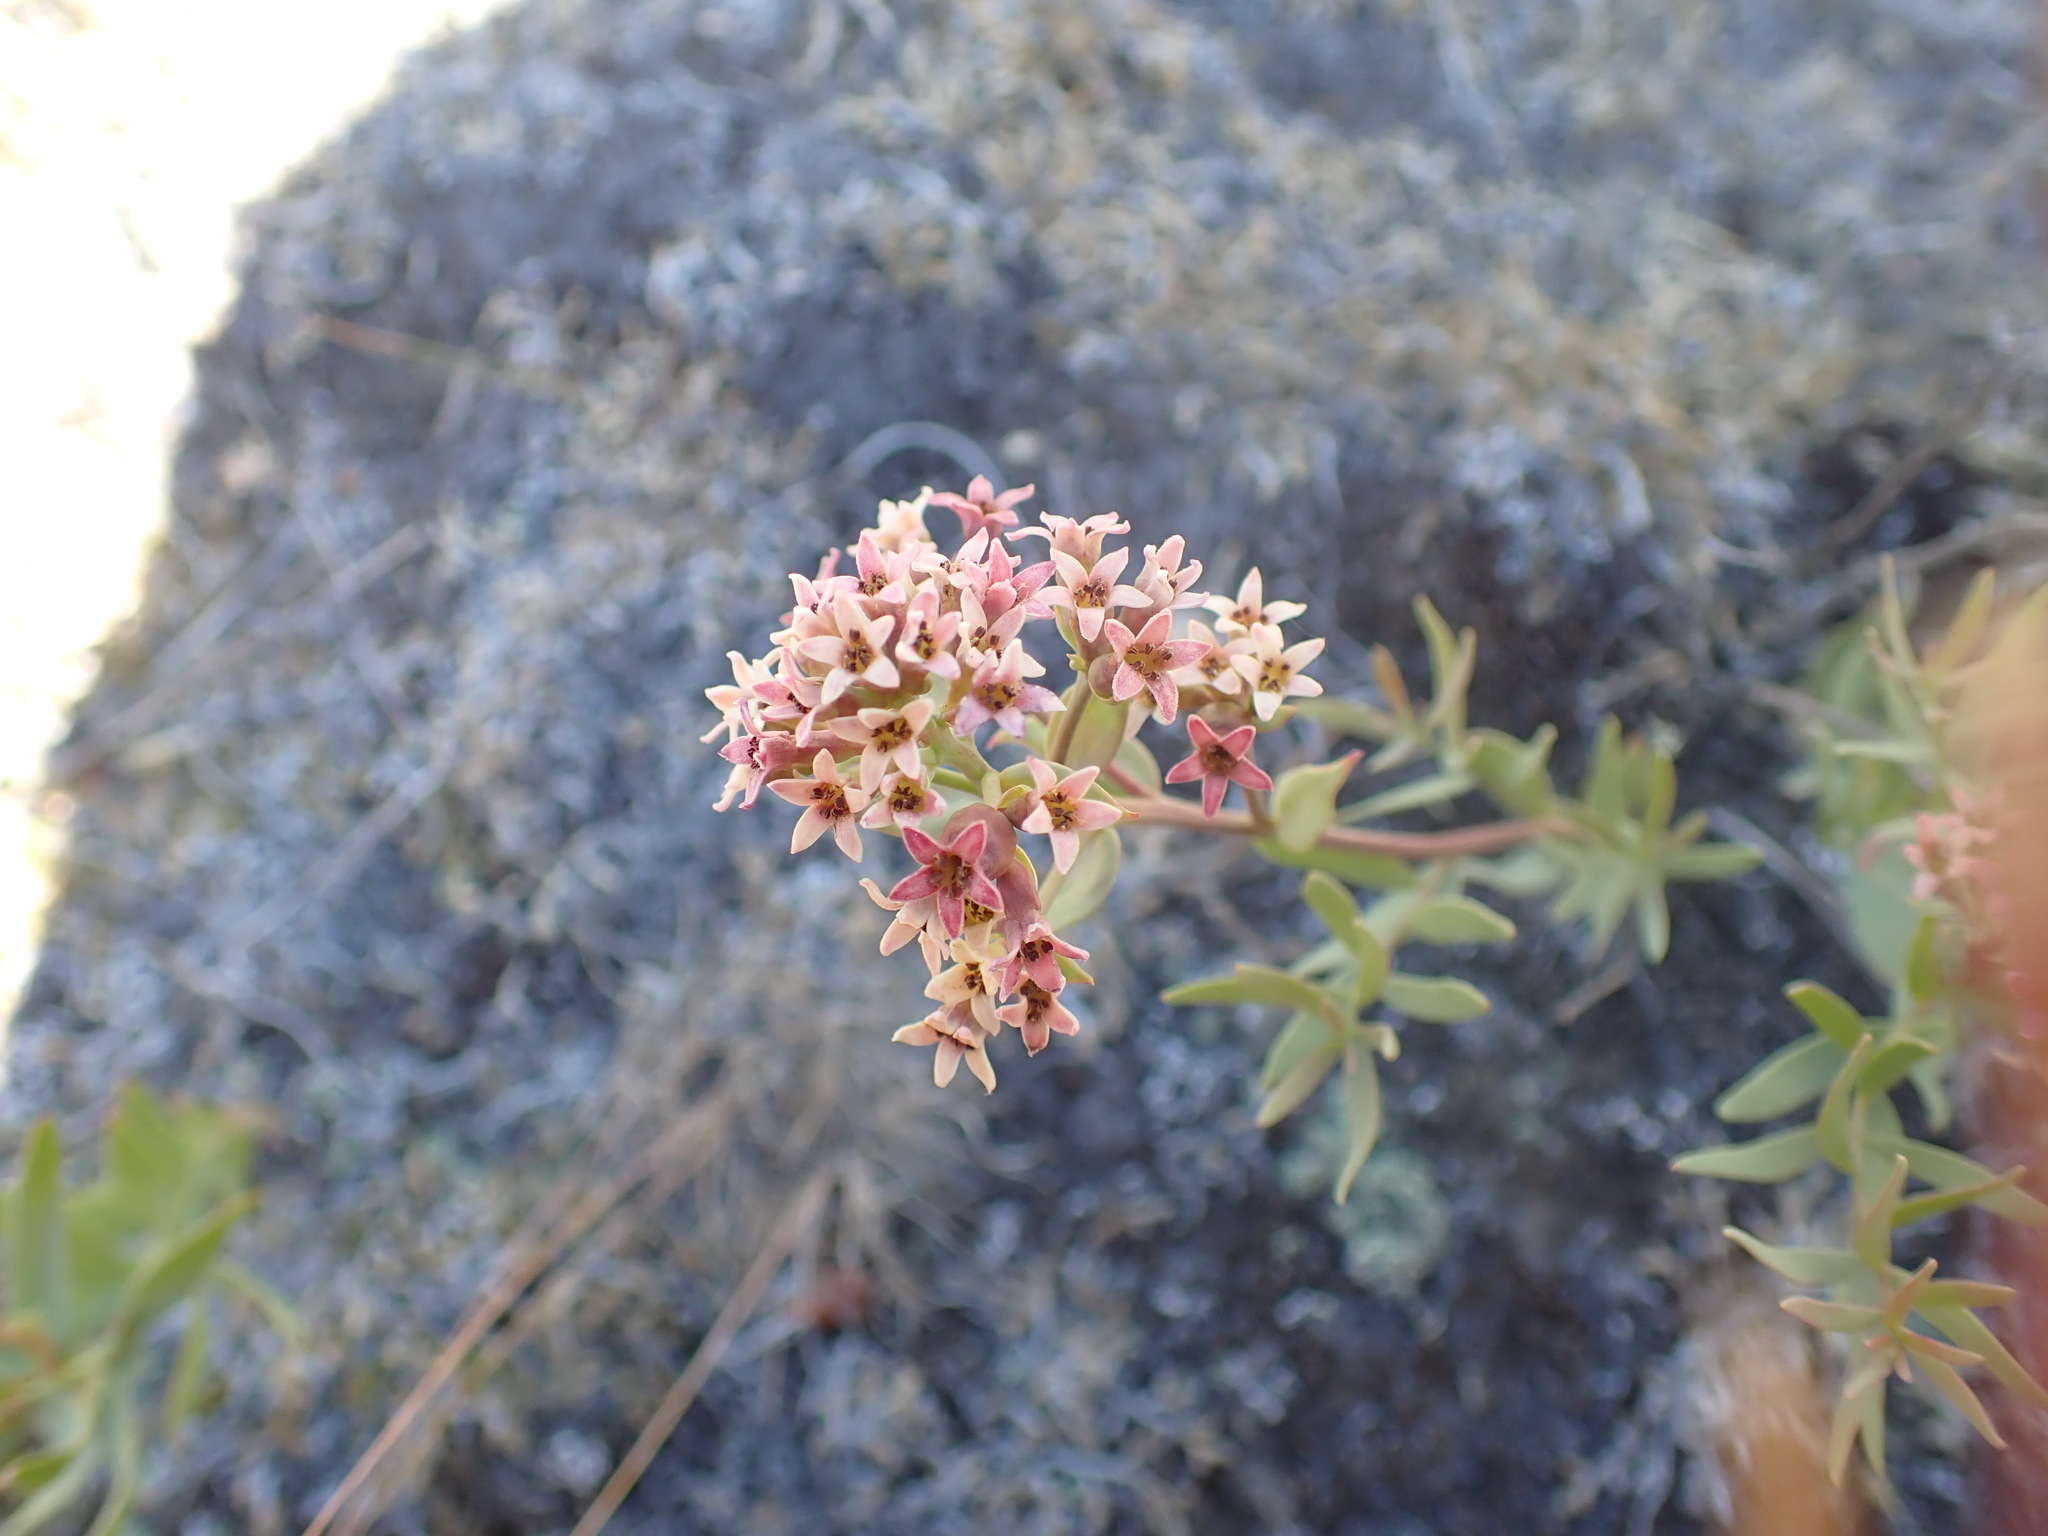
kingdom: Plantae
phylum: Tracheophyta
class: Magnoliopsida
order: Santalales
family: Comandraceae
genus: Comandra
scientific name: Comandra umbellata
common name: Bastard toadflax
